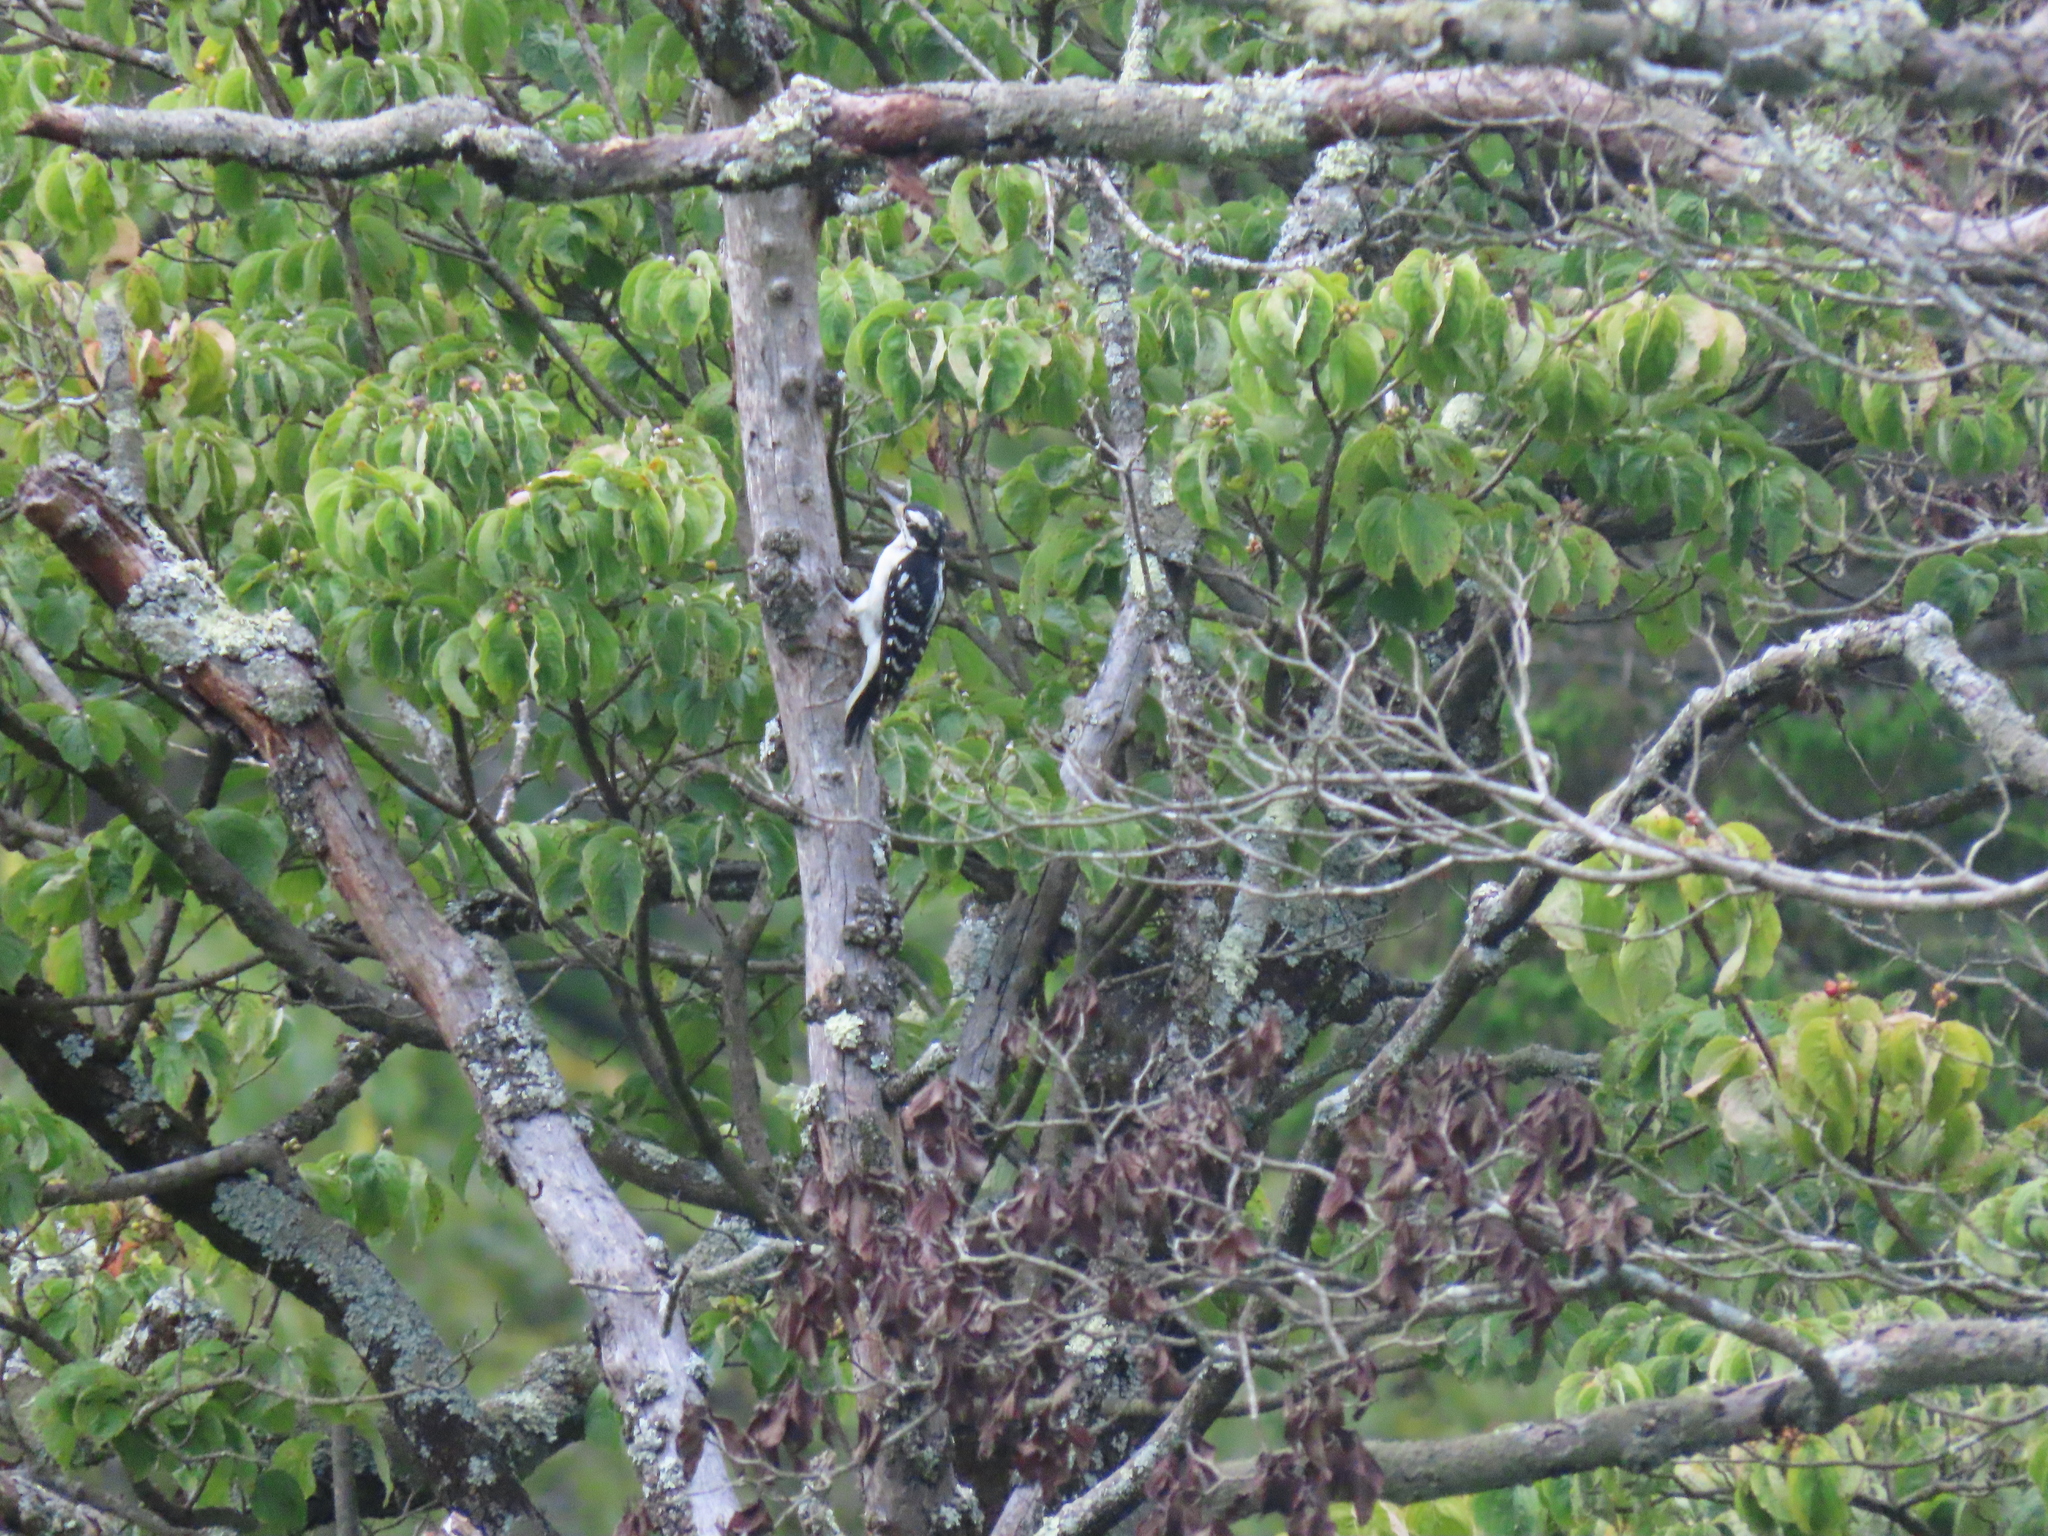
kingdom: Animalia
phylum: Chordata
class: Aves
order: Piciformes
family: Picidae
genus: Leuconotopicus
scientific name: Leuconotopicus villosus
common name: Hairy woodpecker
